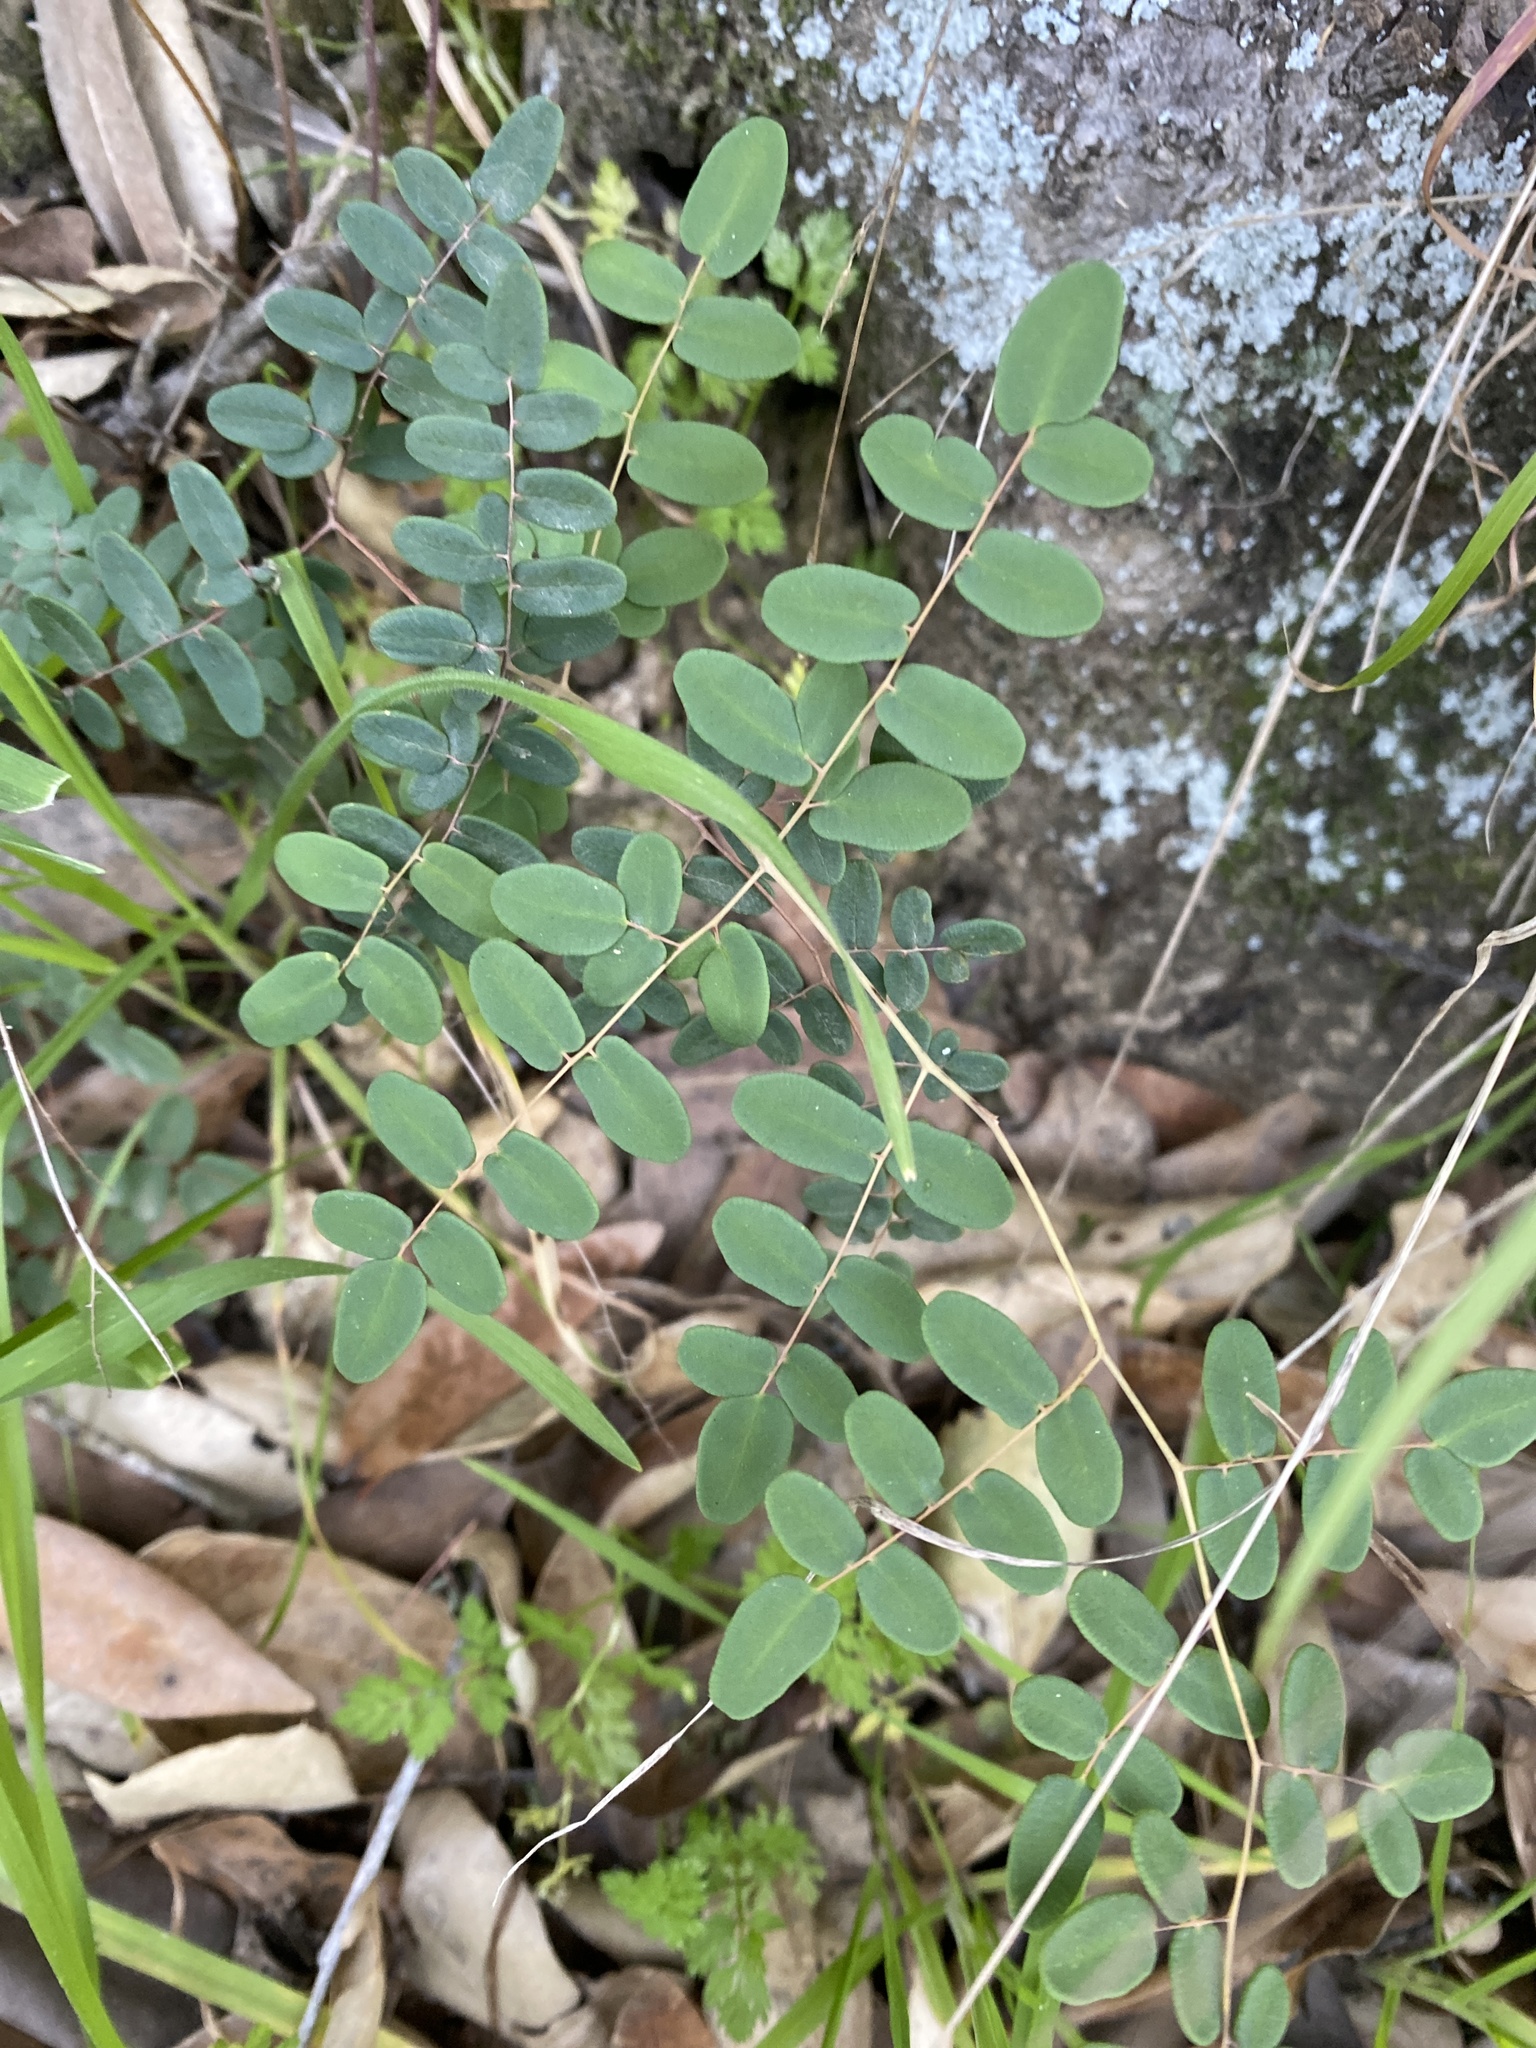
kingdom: Plantae
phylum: Tracheophyta
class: Polypodiopsida
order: Polypodiales
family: Pteridaceae
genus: Pellaea
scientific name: Pellaea andromedifolia
